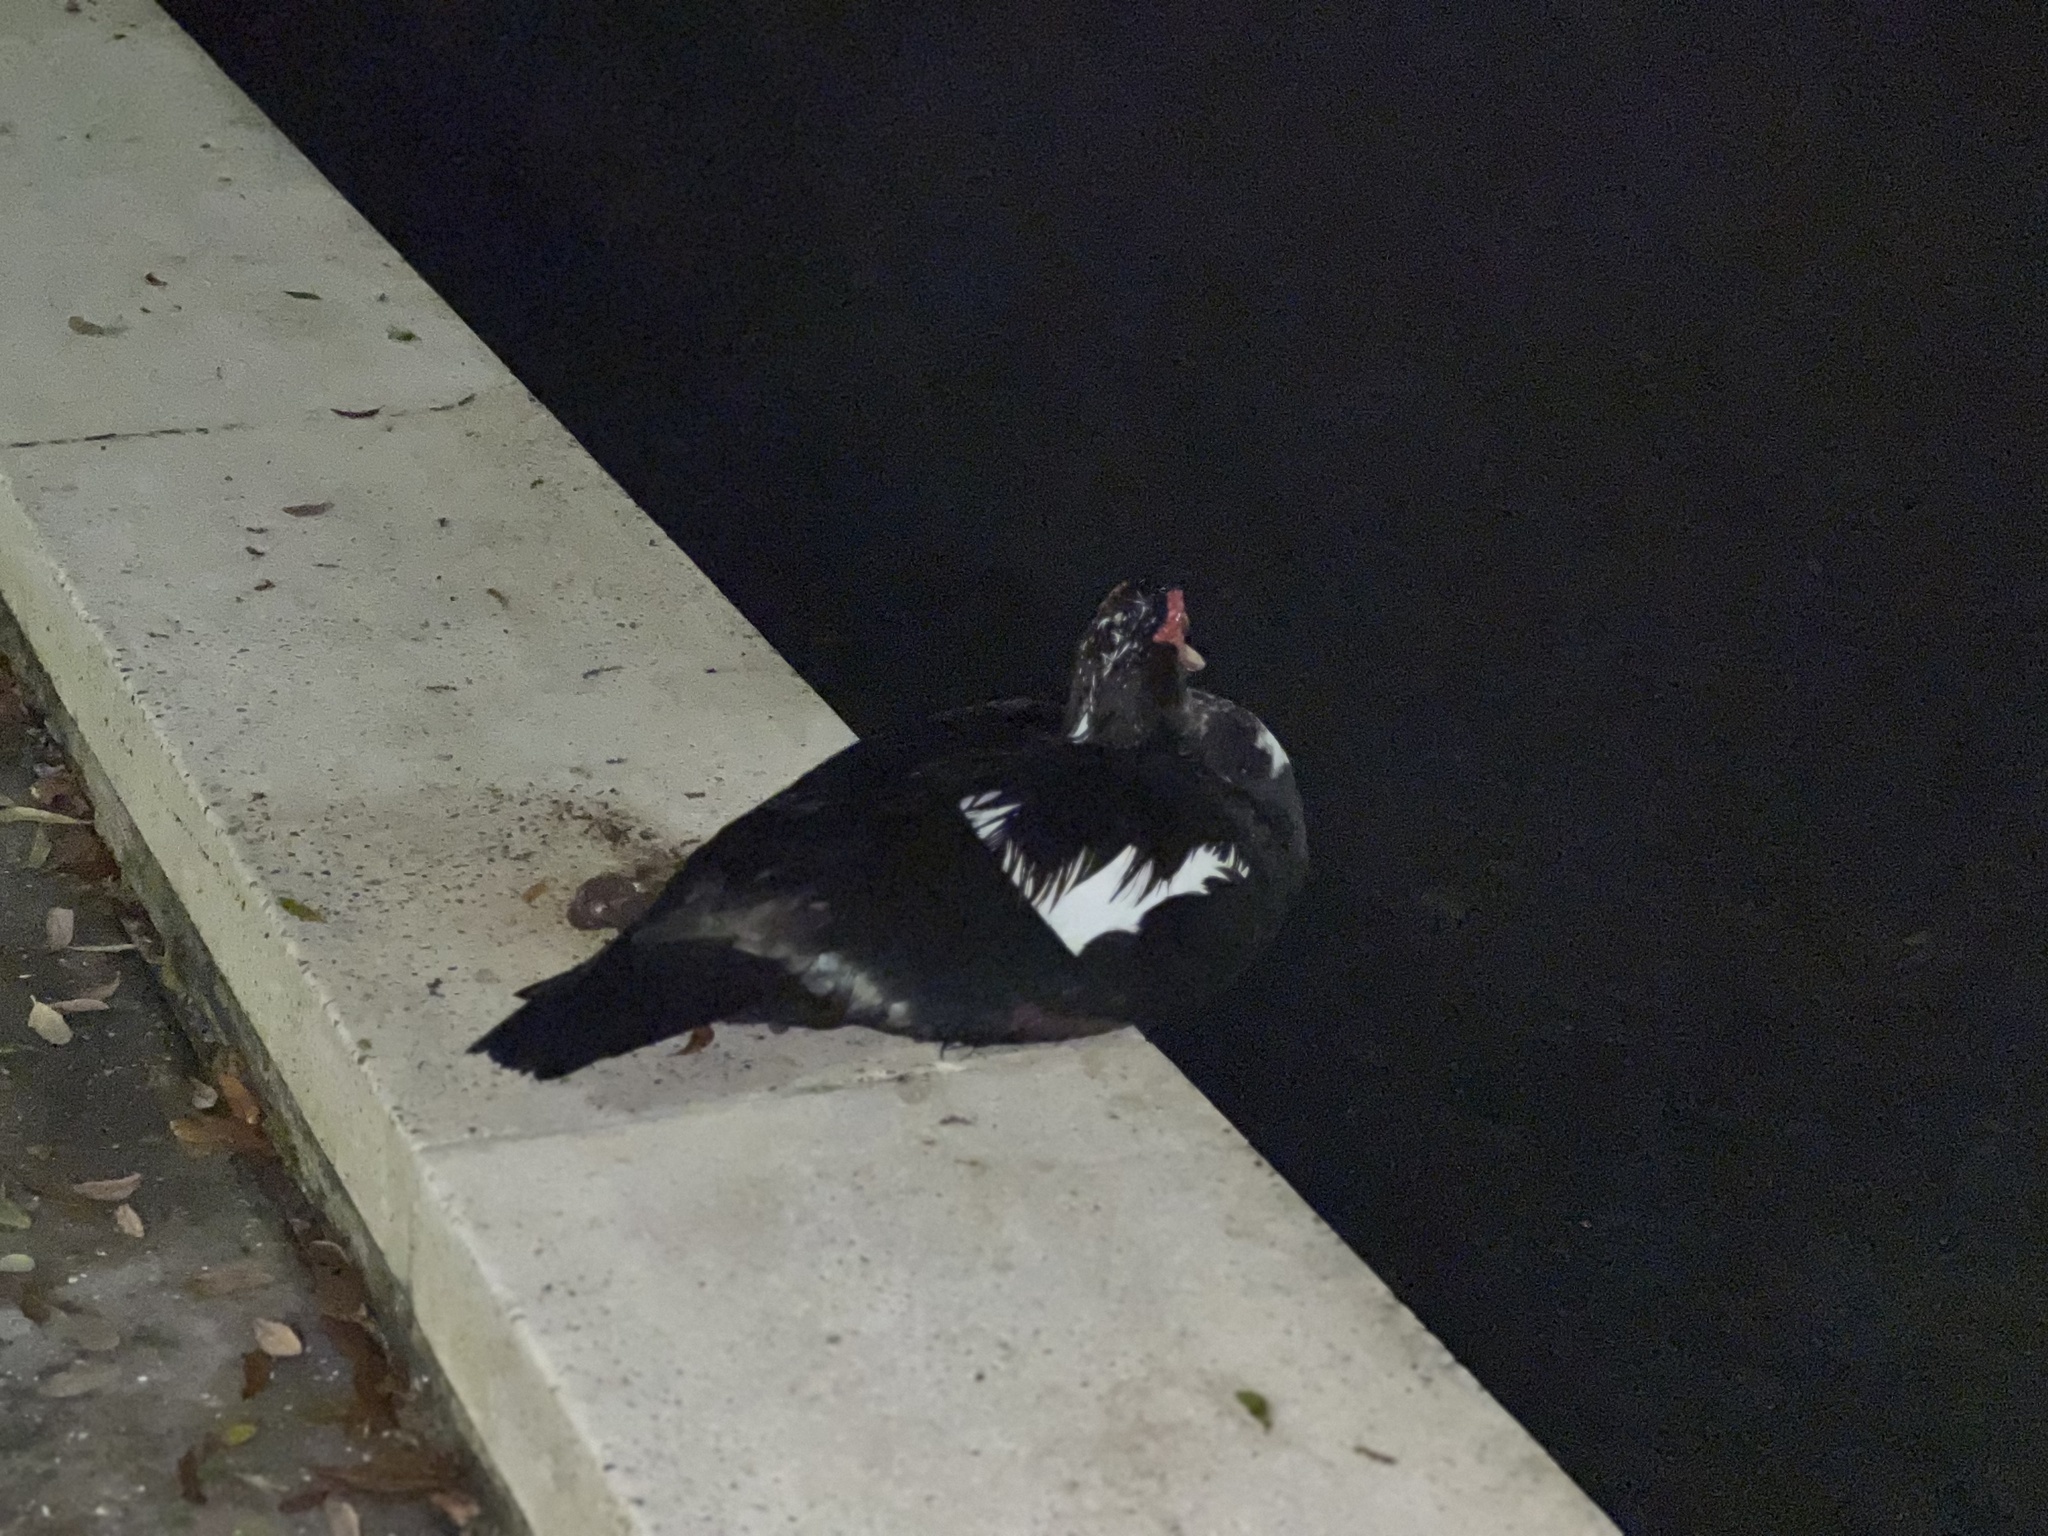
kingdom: Animalia
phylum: Chordata
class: Aves
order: Anseriformes
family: Anatidae
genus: Cairina
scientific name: Cairina moschata
